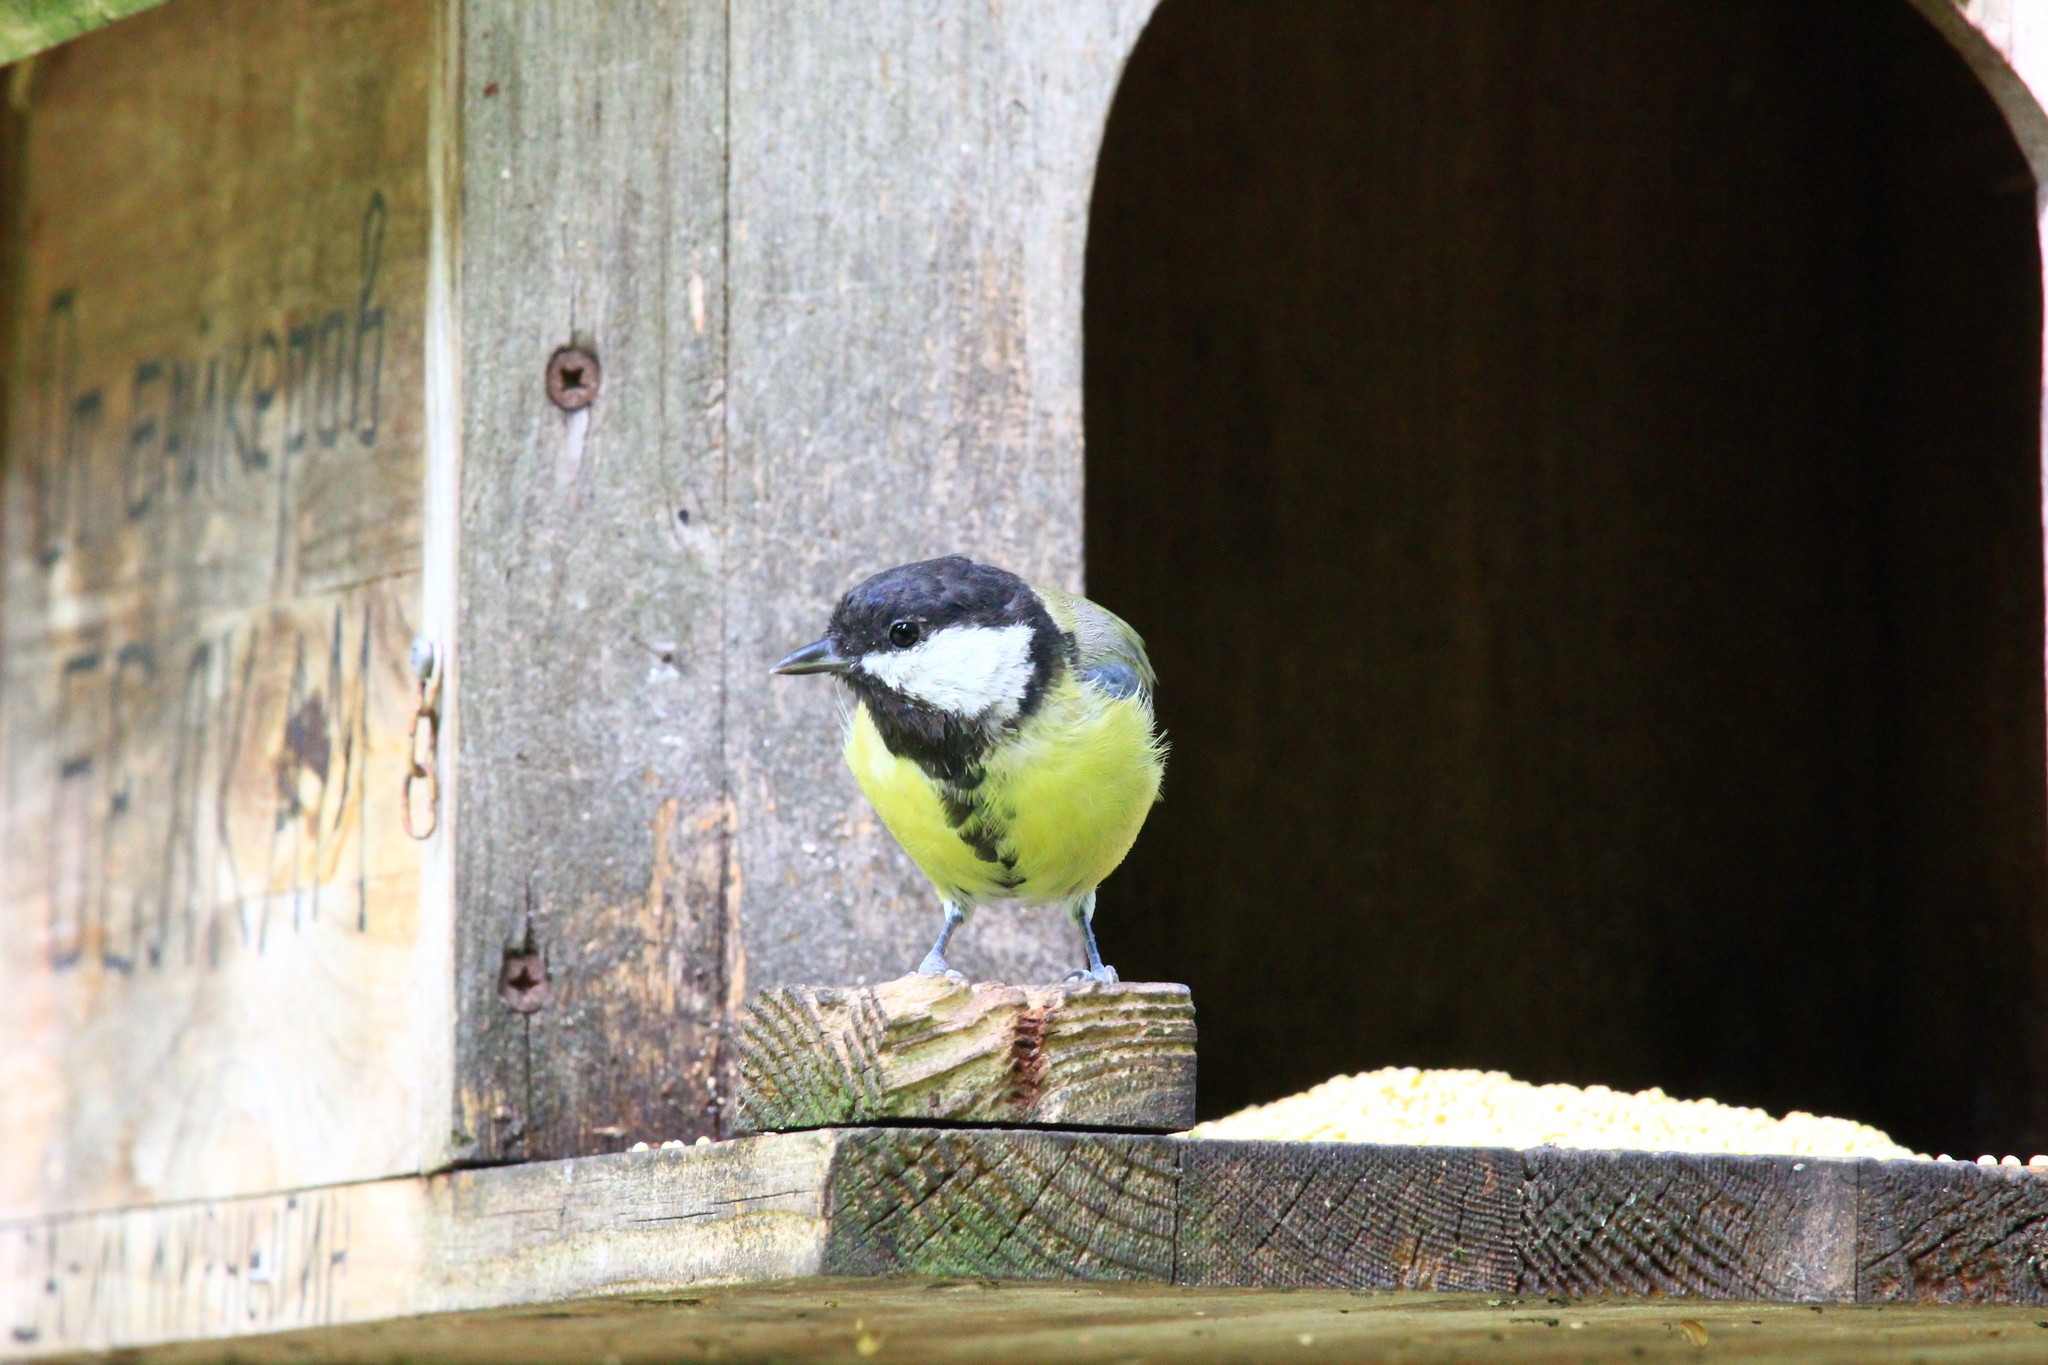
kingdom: Animalia
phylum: Chordata
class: Aves
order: Passeriformes
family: Paridae
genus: Parus
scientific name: Parus major
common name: Great tit
